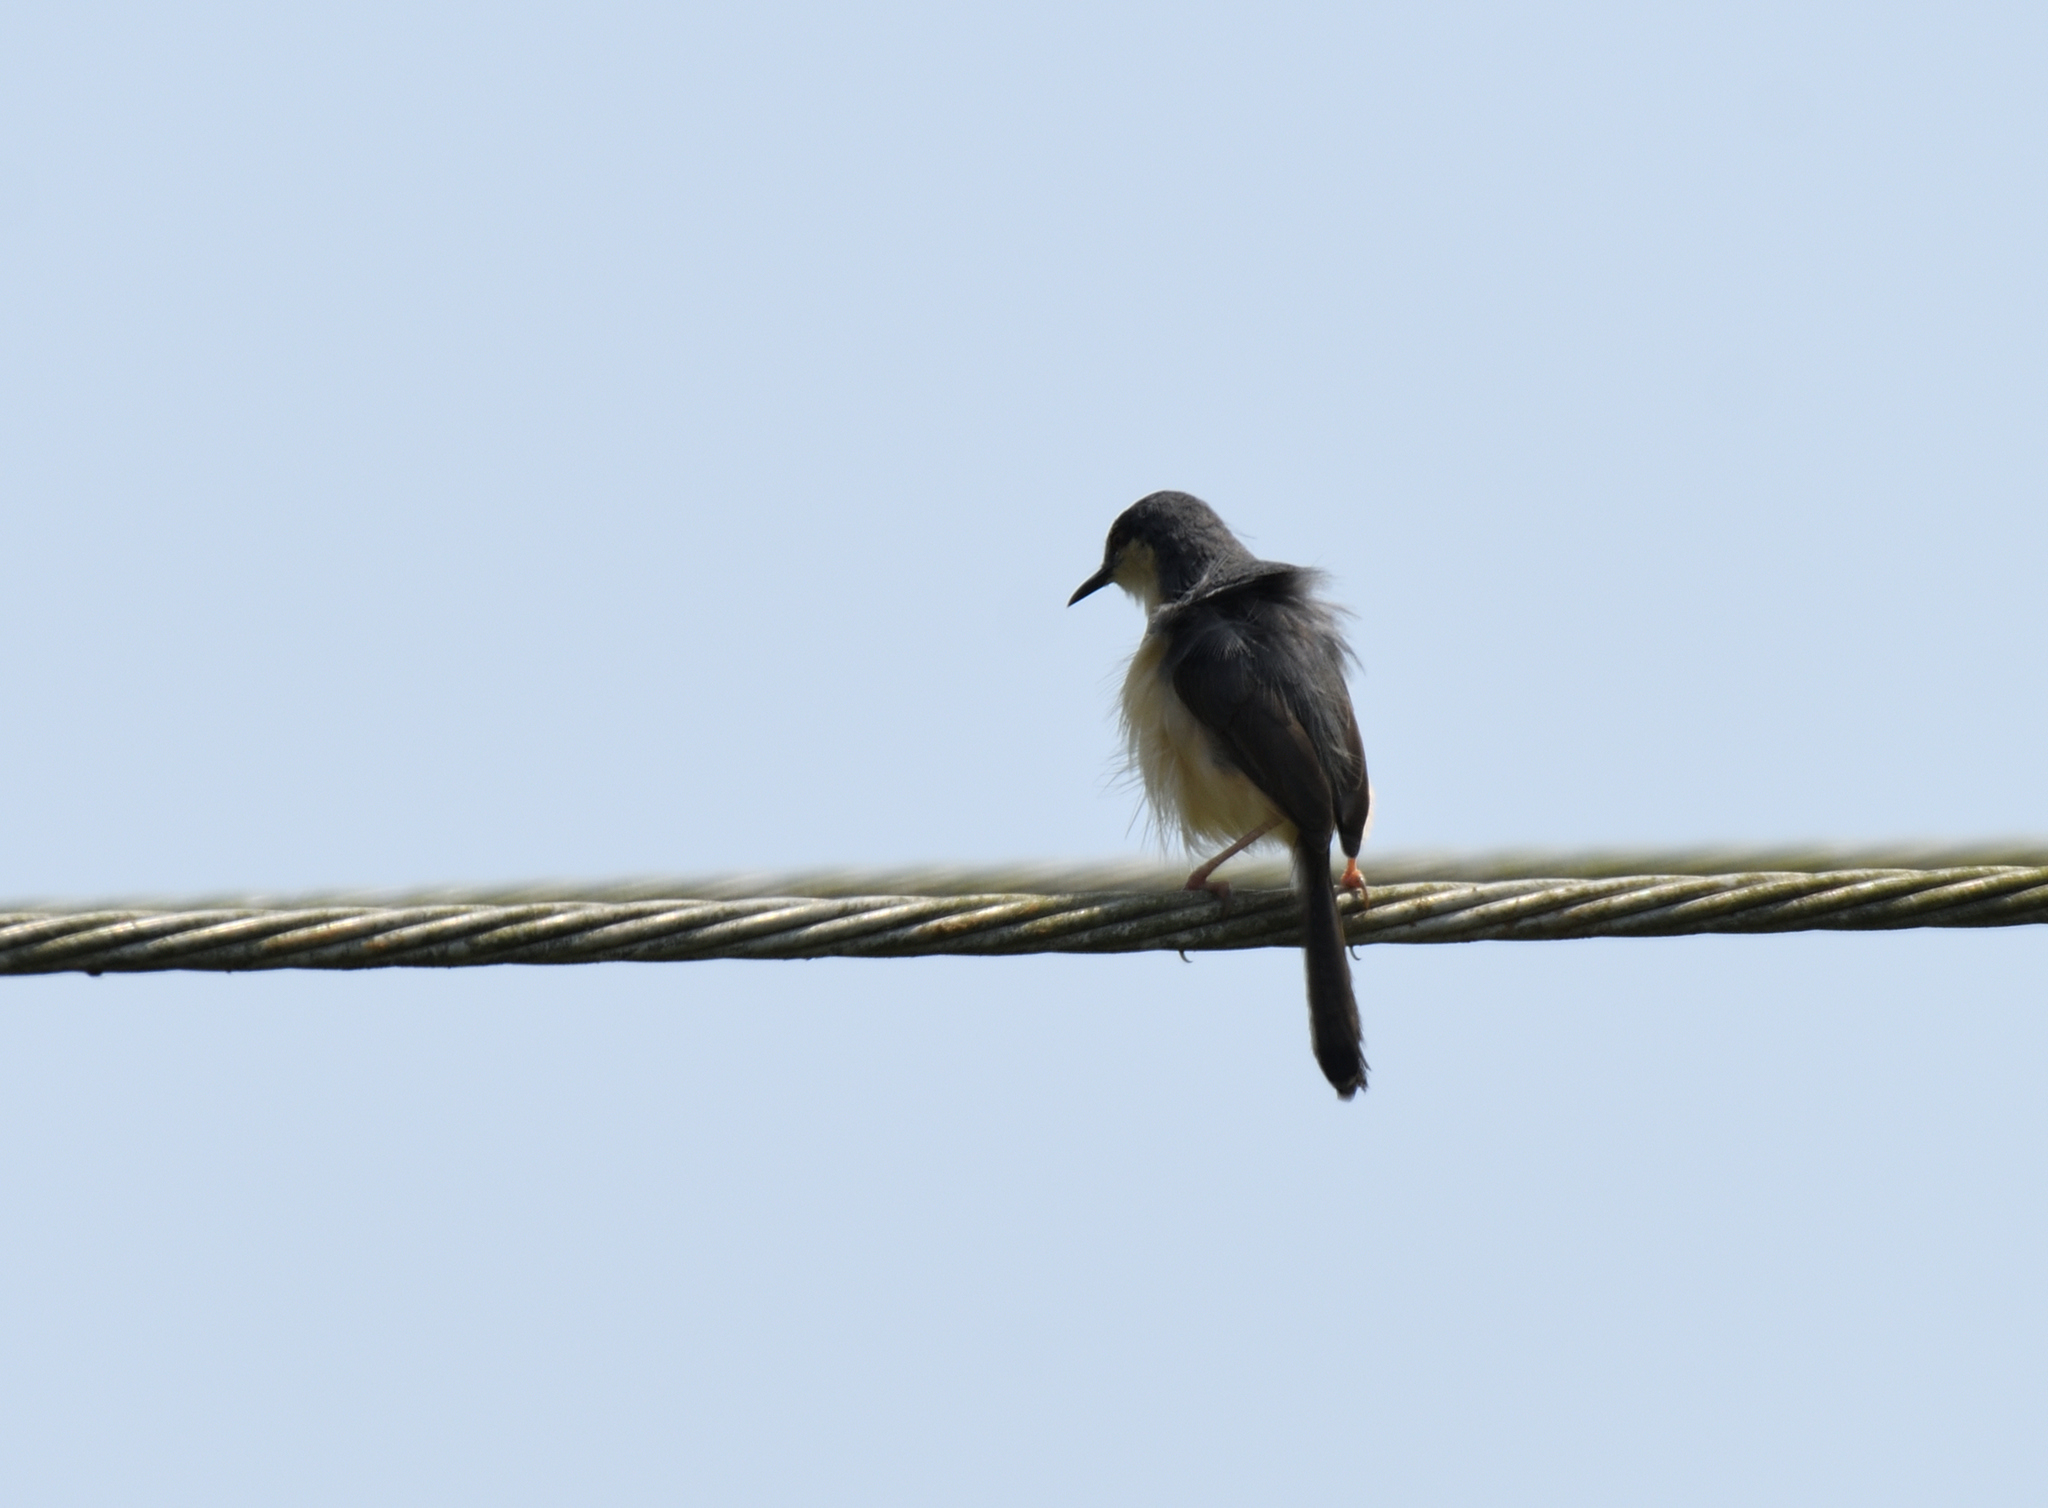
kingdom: Animalia
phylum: Chordata
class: Aves
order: Passeriformes
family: Cisticolidae
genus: Prinia
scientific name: Prinia socialis
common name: Ashy prinia
